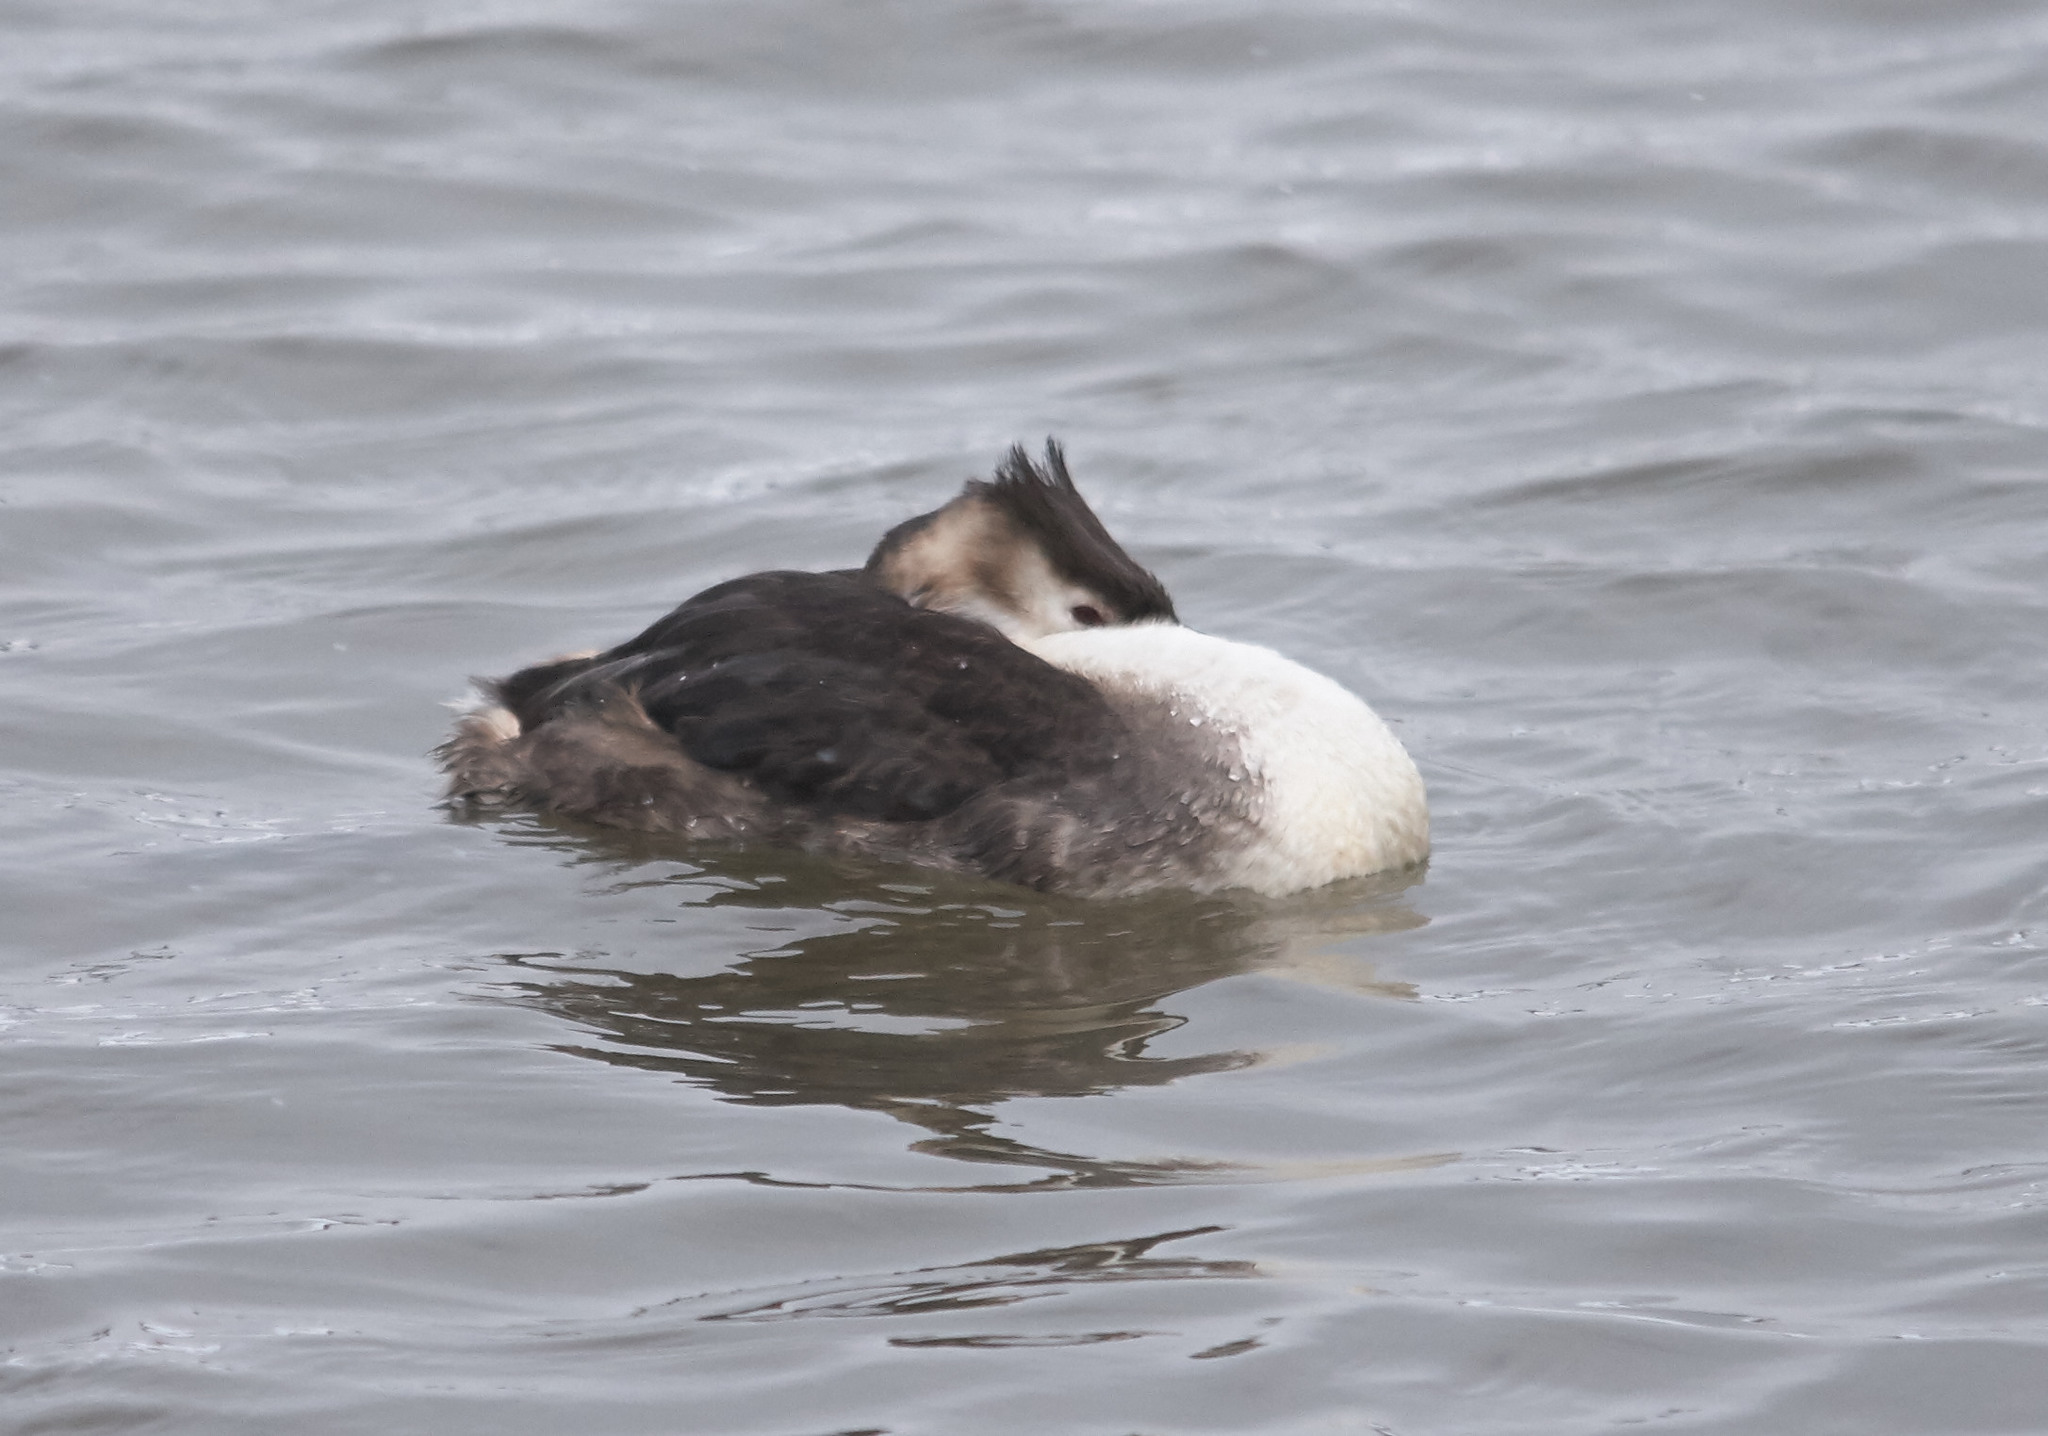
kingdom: Animalia
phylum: Chordata
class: Aves
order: Podicipediformes
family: Podicipedidae
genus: Podiceps
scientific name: Podiceps cristatus
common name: Great crested grebe
